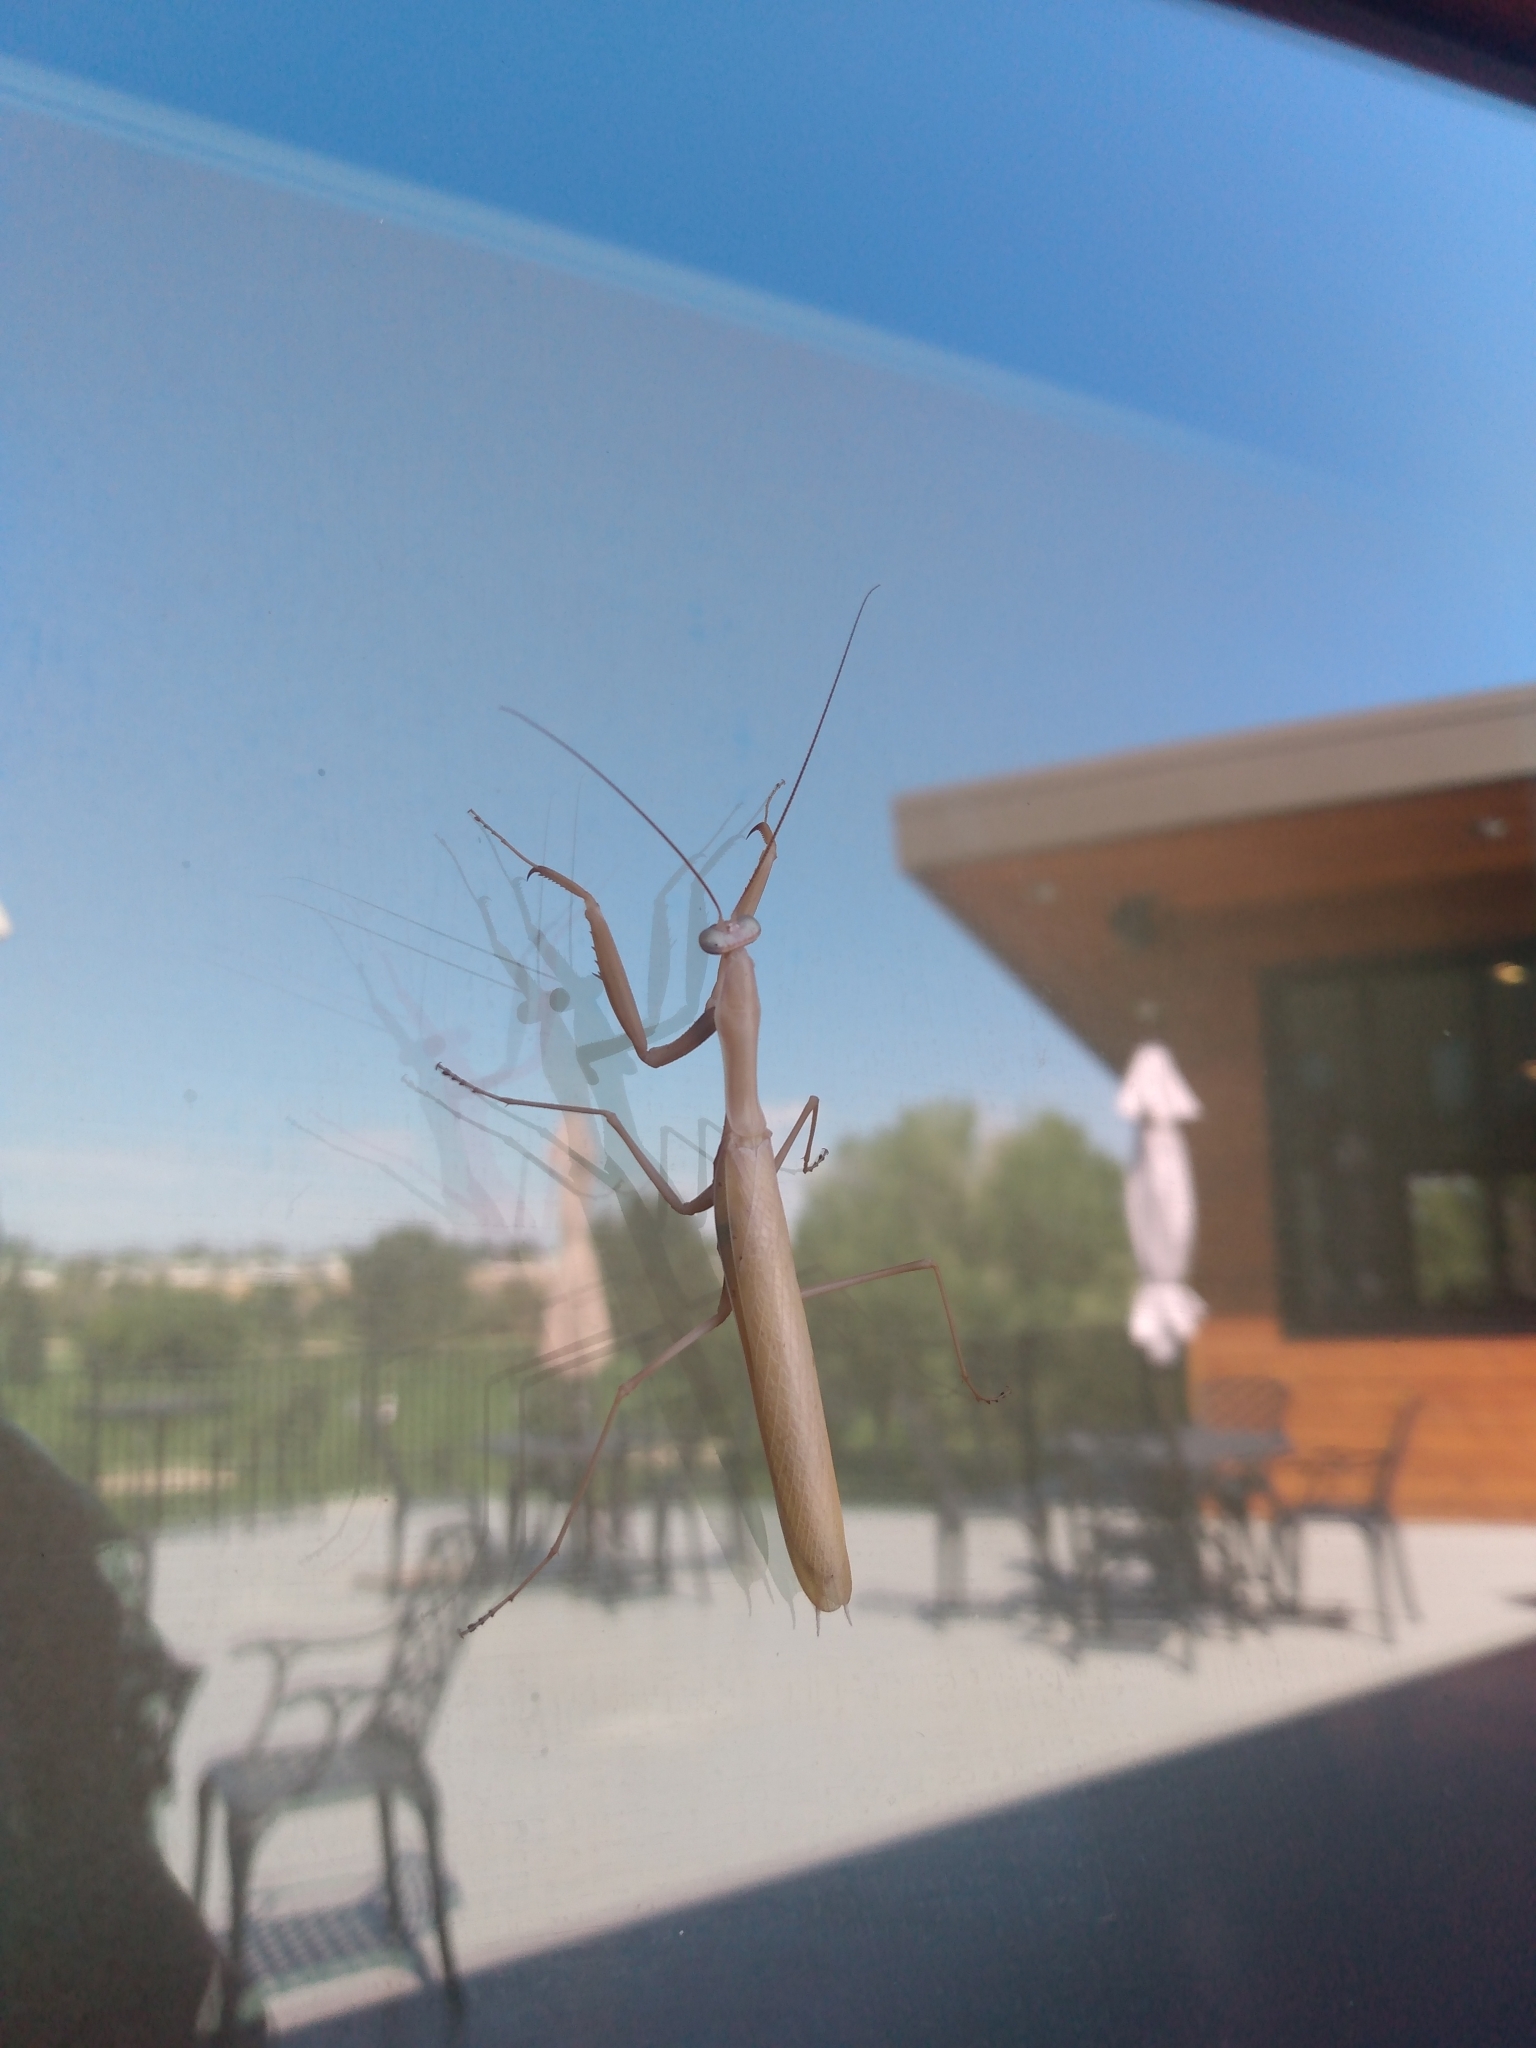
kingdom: Animalia
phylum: Arthropoda
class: Insecta
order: Mantodea
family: Mantidae
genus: Mantis
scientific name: Mantis religiosa
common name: Praying mantis
